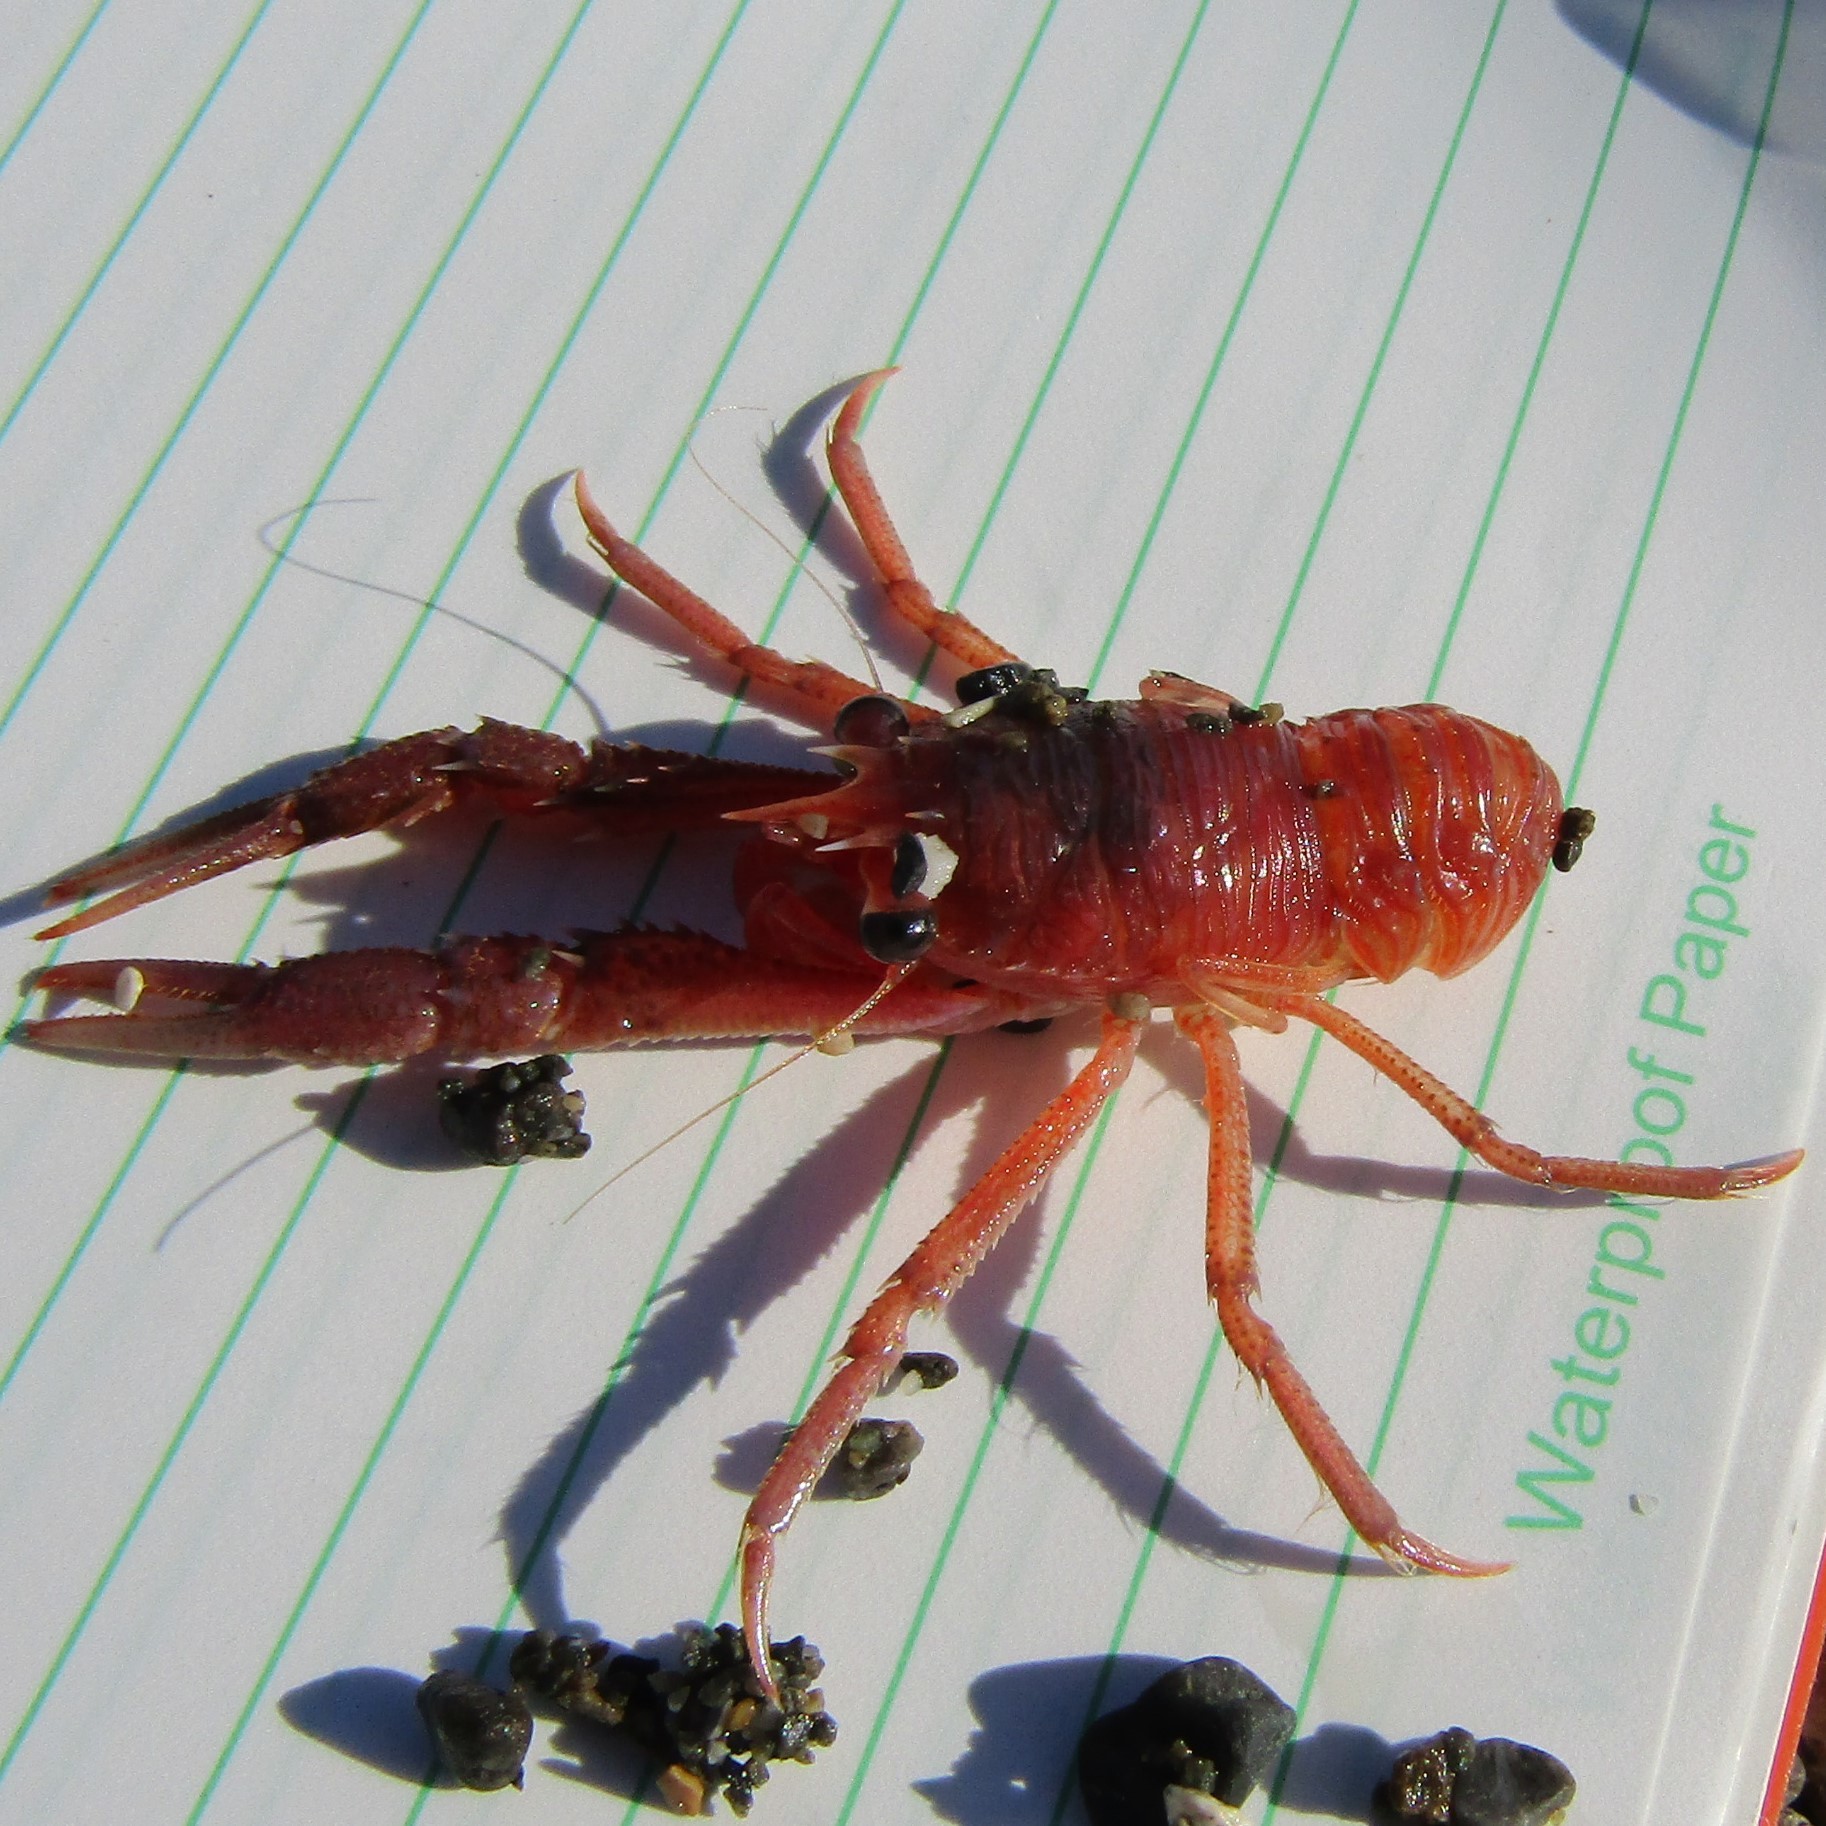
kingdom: Animalia
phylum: Arthropoda
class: Malacostraca
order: Decapoda
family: Munididae
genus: Grimothea
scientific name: Grimothea gregaria
